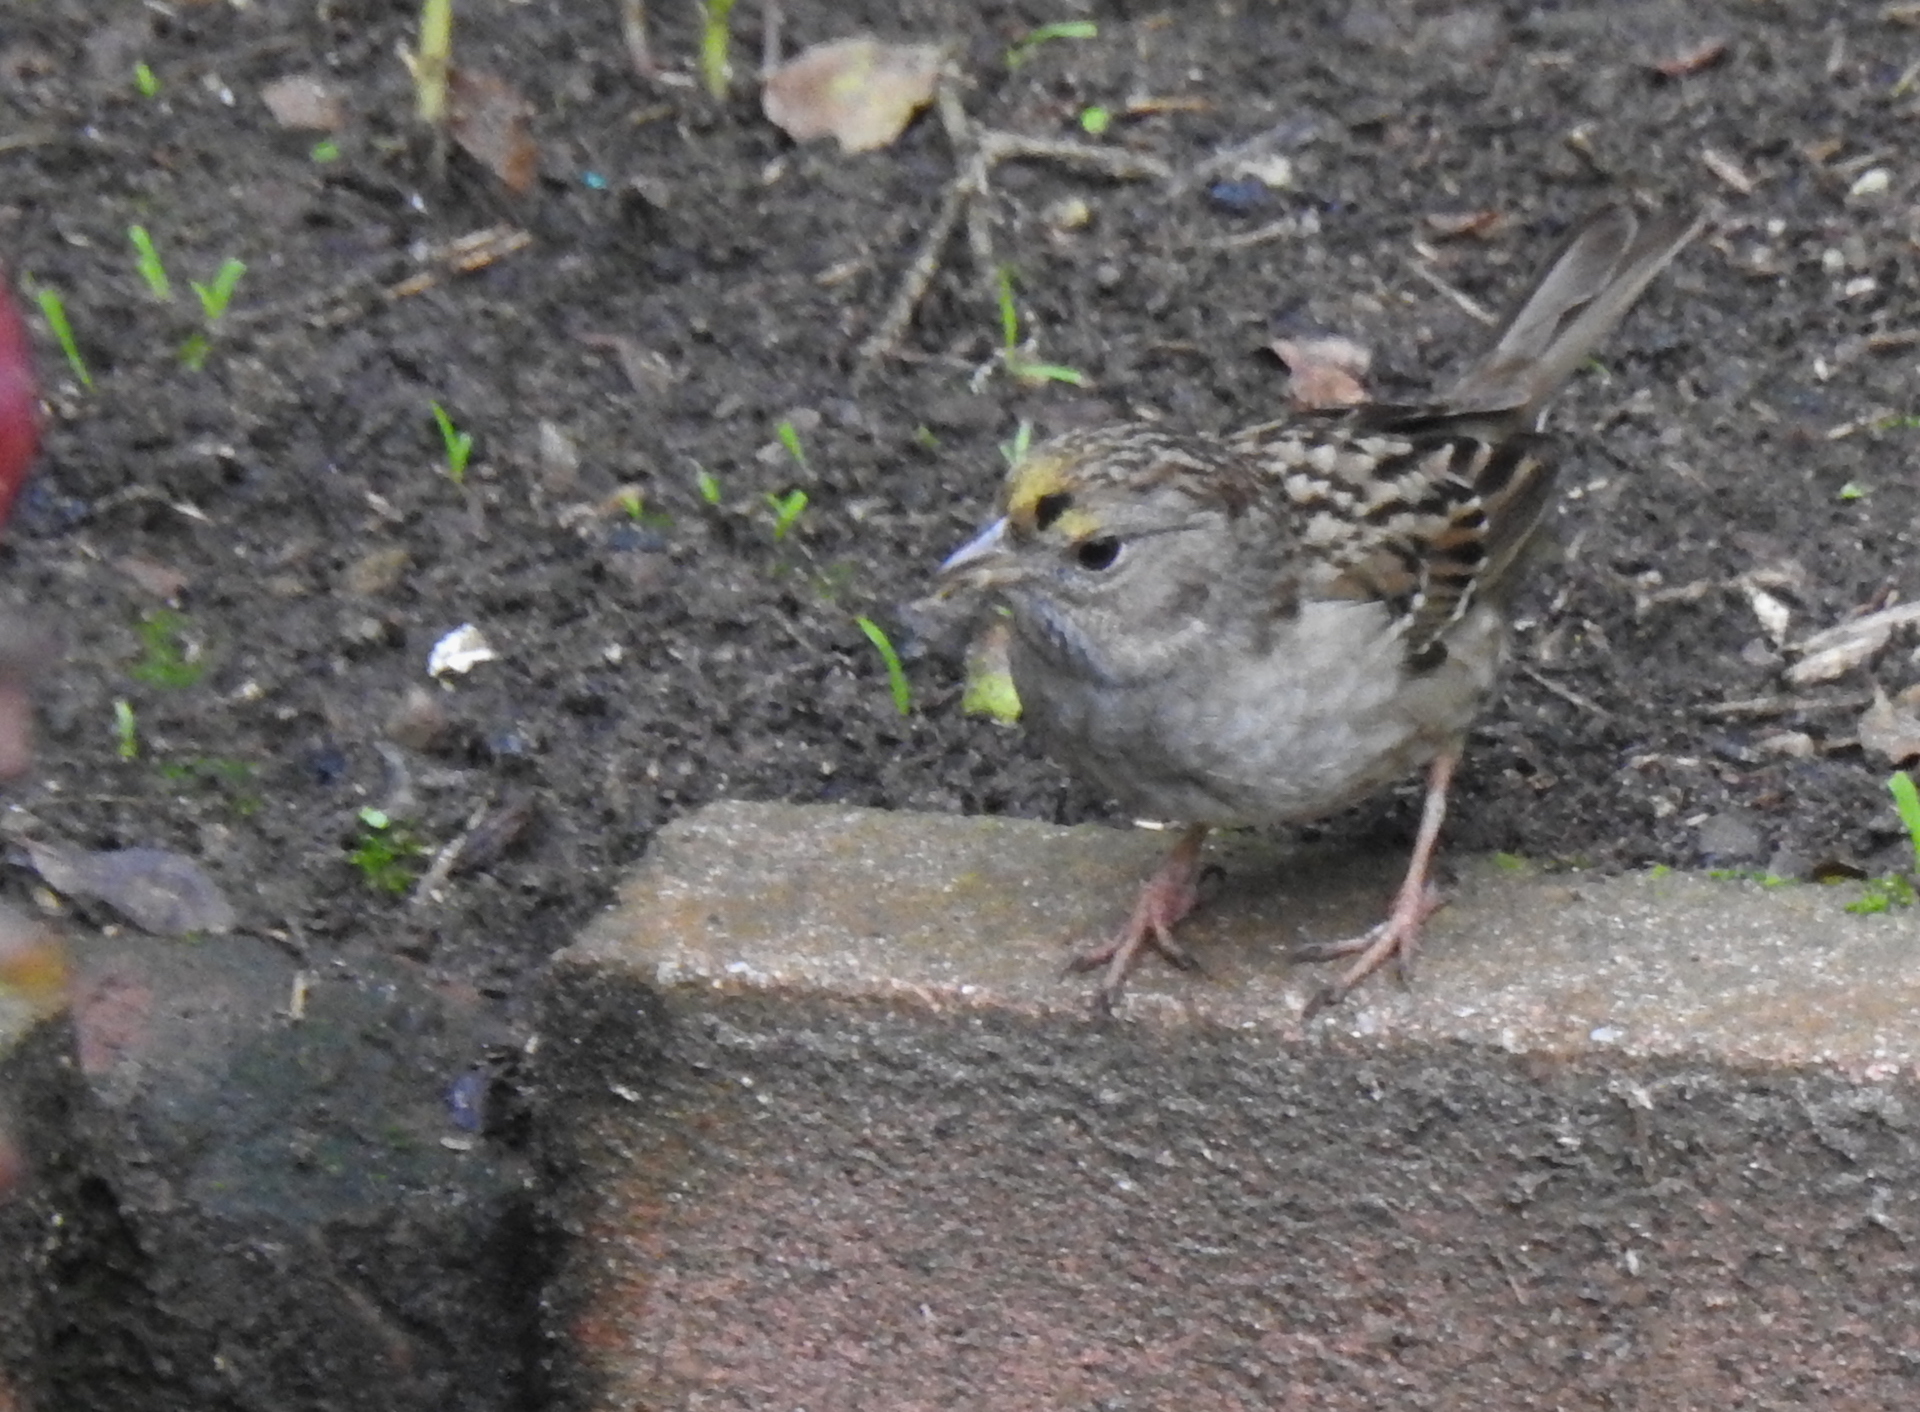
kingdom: Animalia
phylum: Chordata
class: Aves
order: Passeriformes
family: Passerellidae
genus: Zonotrichia
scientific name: Zonotrichia atricapilla
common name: Golden-crowned sparrow
